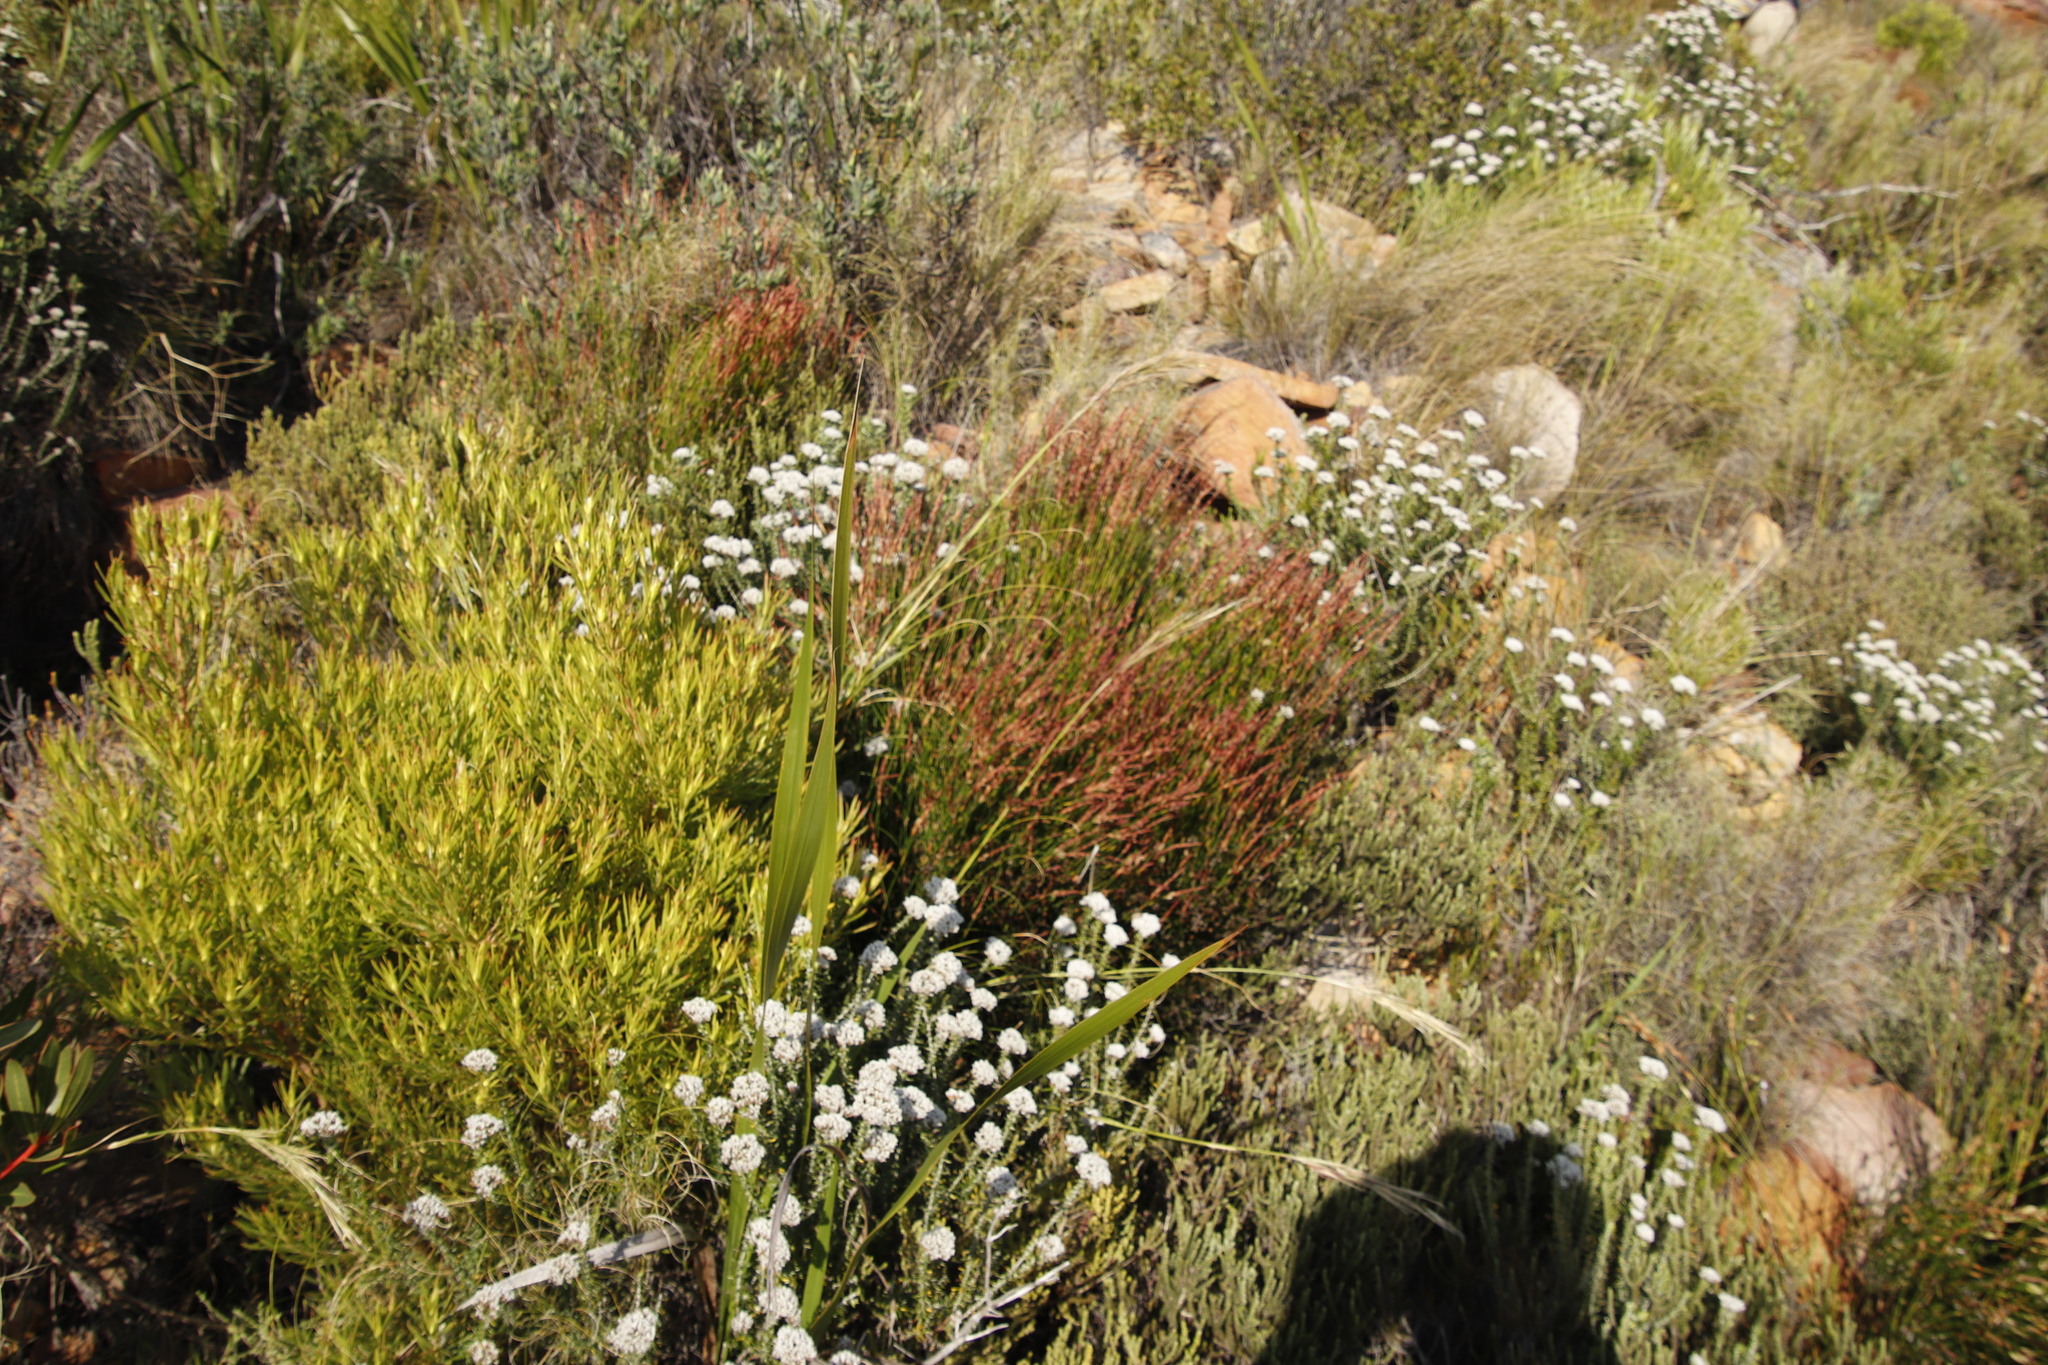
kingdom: Plantae
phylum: Tracheophyta
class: Magnoliopsida
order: Proteales
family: Proteaceae
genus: Leucadendron
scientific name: Leucadendron xanthoconus
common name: Sickle-leaf conebush
